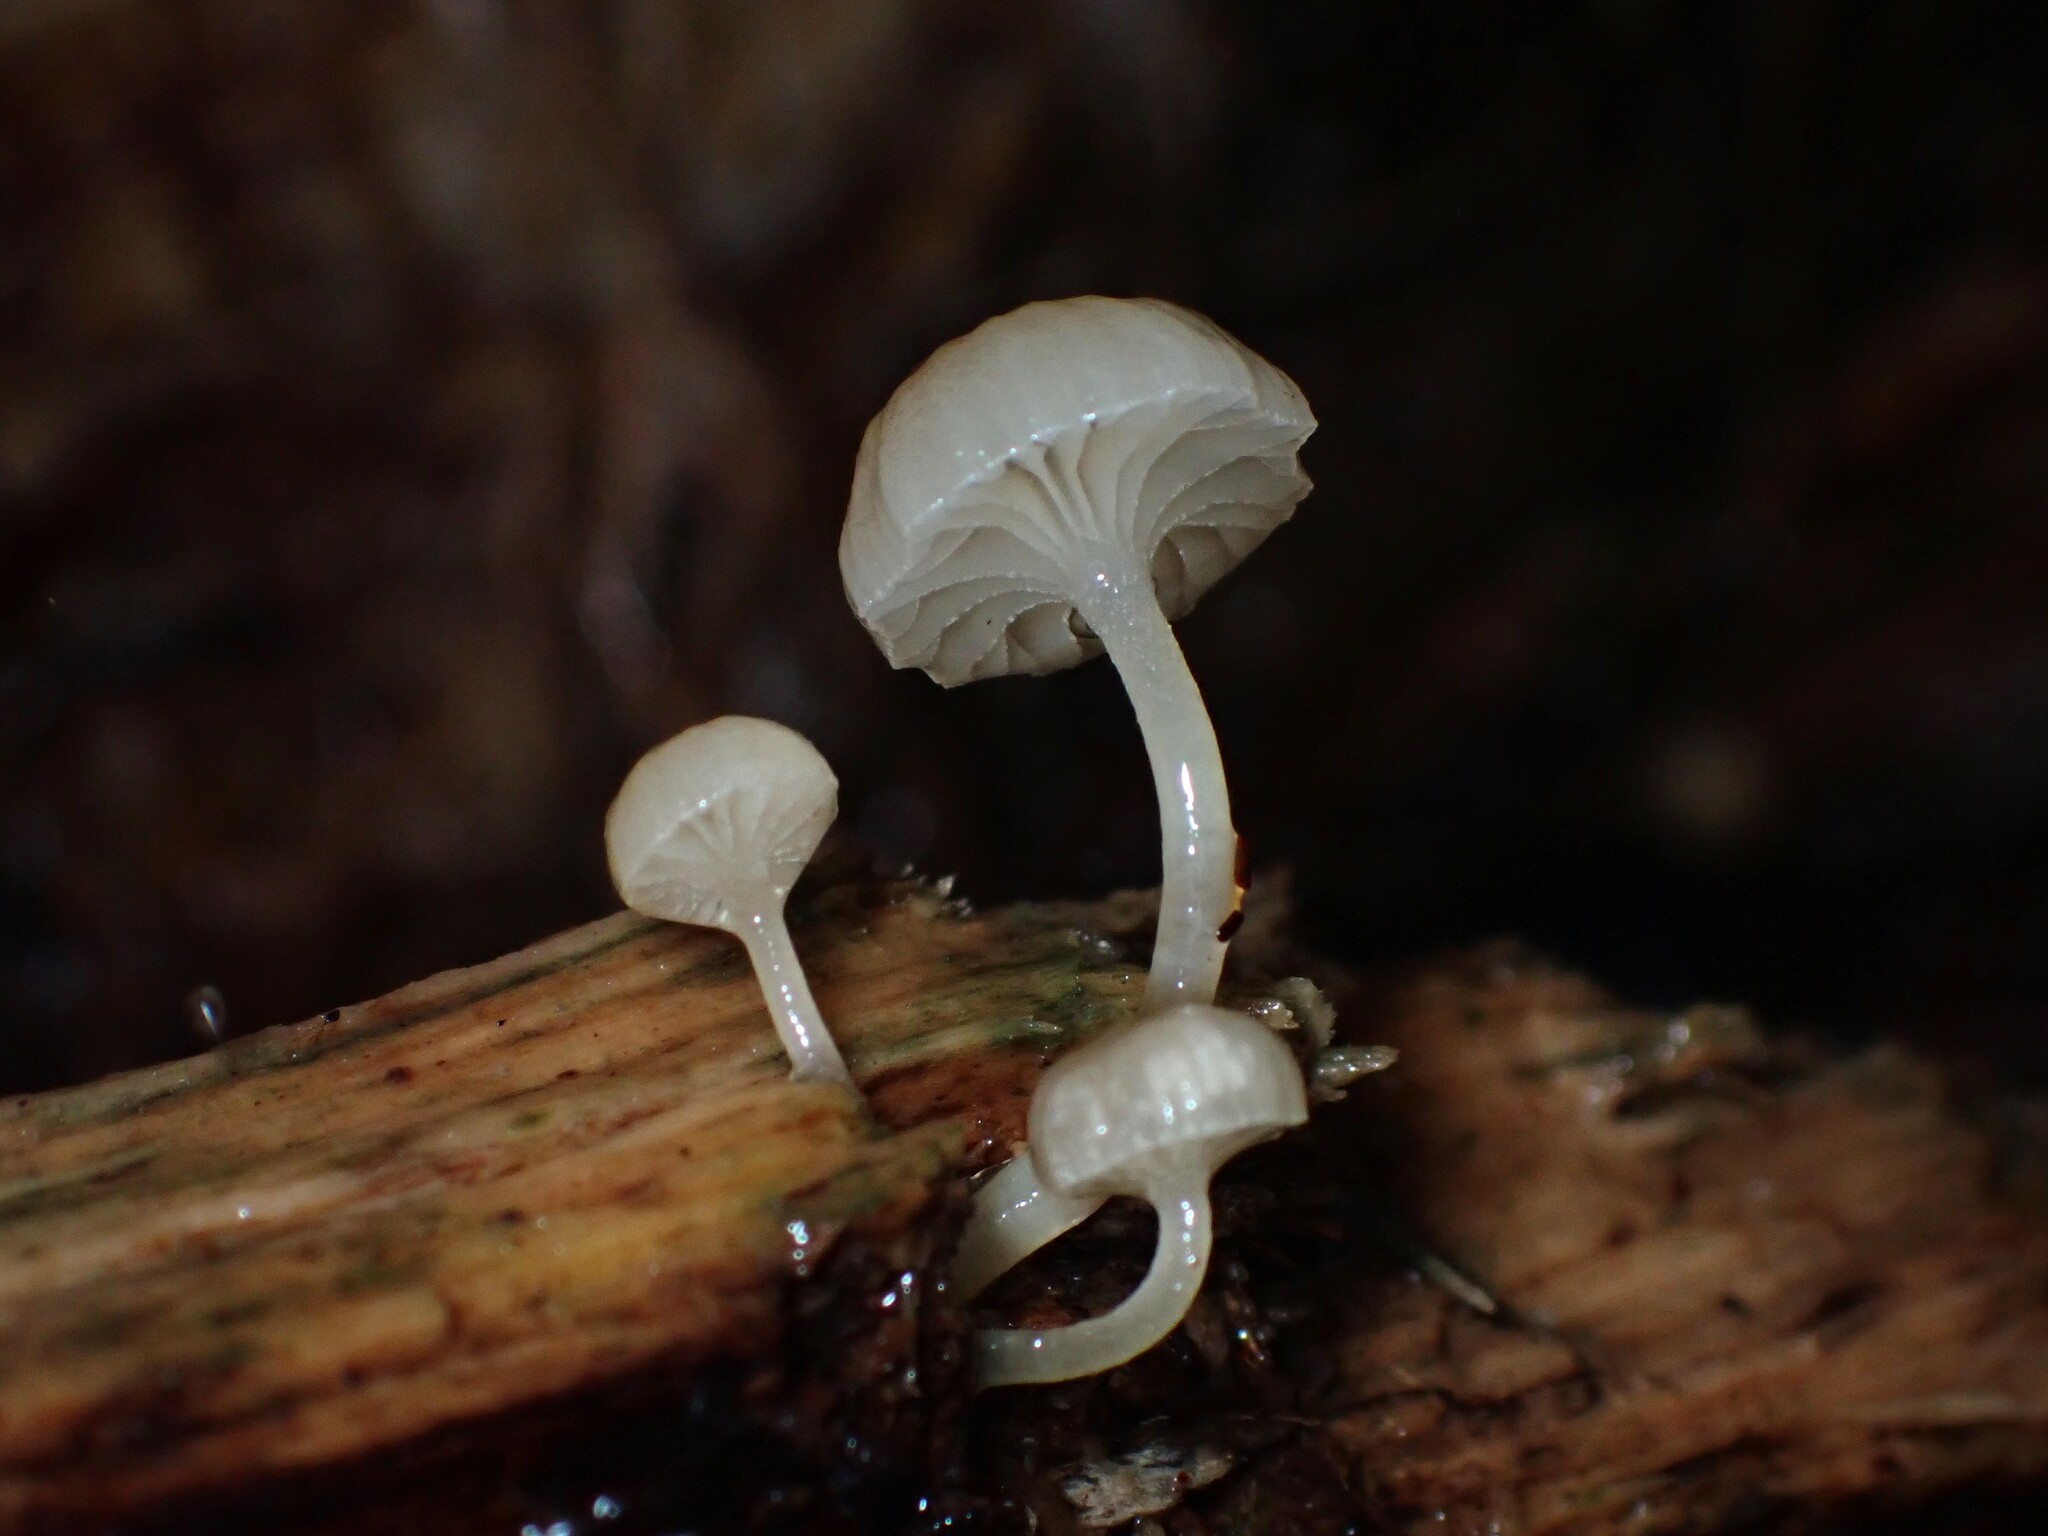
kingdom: Fungi
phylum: Basidiomycota
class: Agaricomycetes
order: Agaricales
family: Mycenaceae
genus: Roridomyces
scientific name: Roridomyces austrororidus
